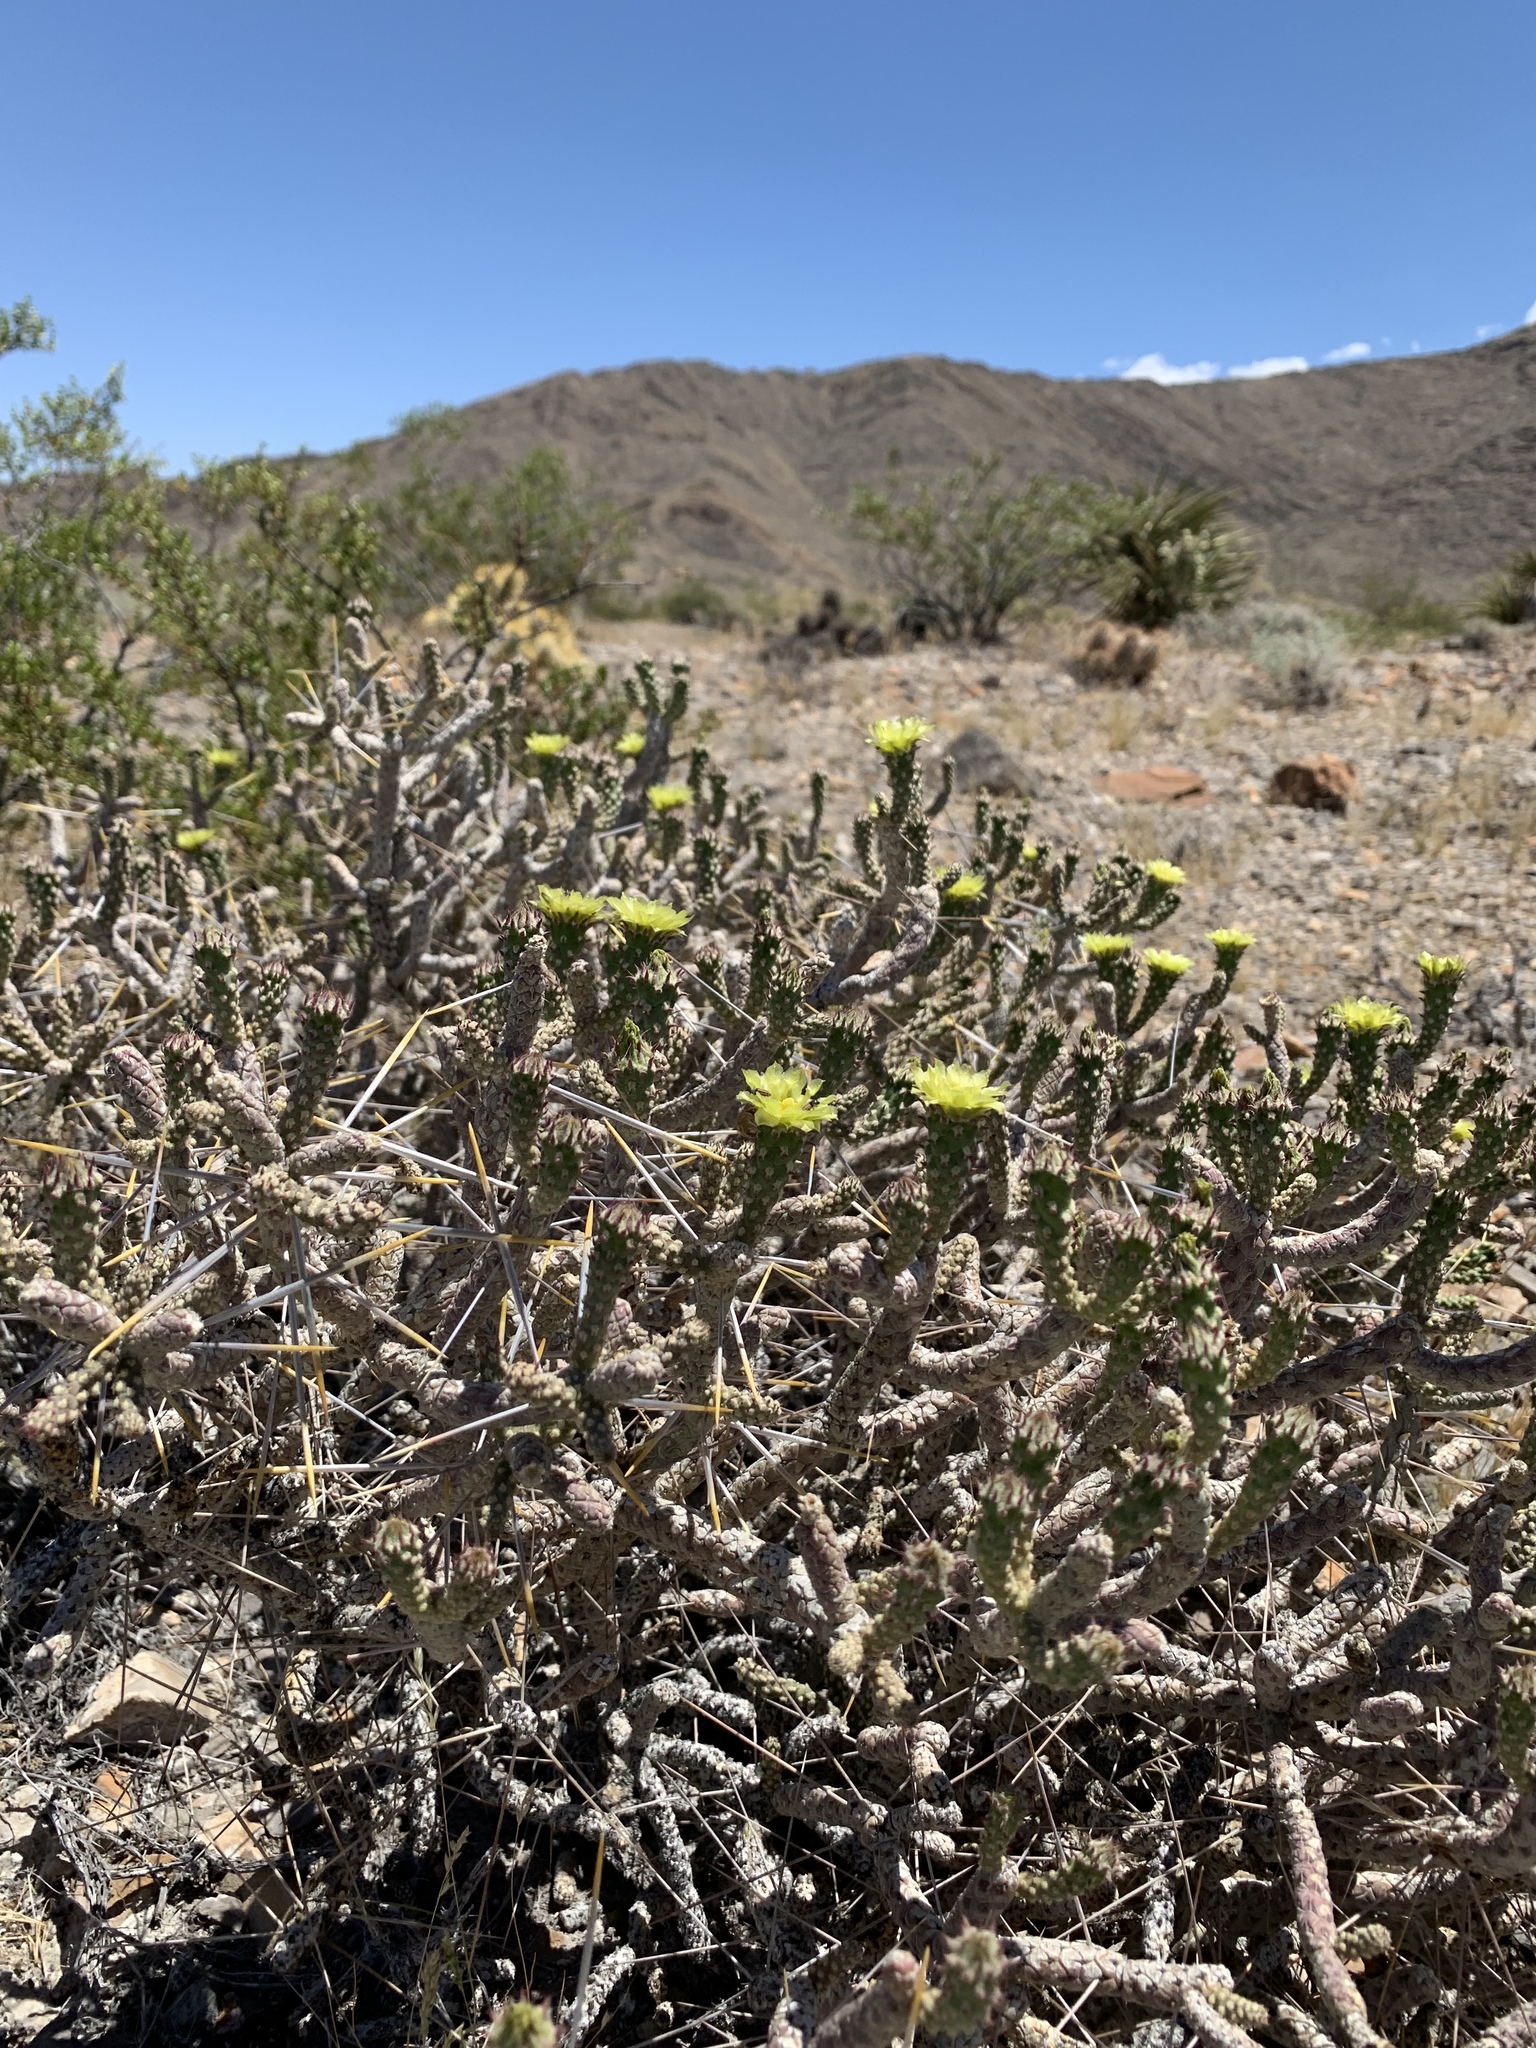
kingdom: Plantae
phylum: Tracheophyta
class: Magnoliopsida
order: Caryophyllales
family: Cactaceae
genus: Cylindropuntia
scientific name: Cylindropuntia ramosissima
